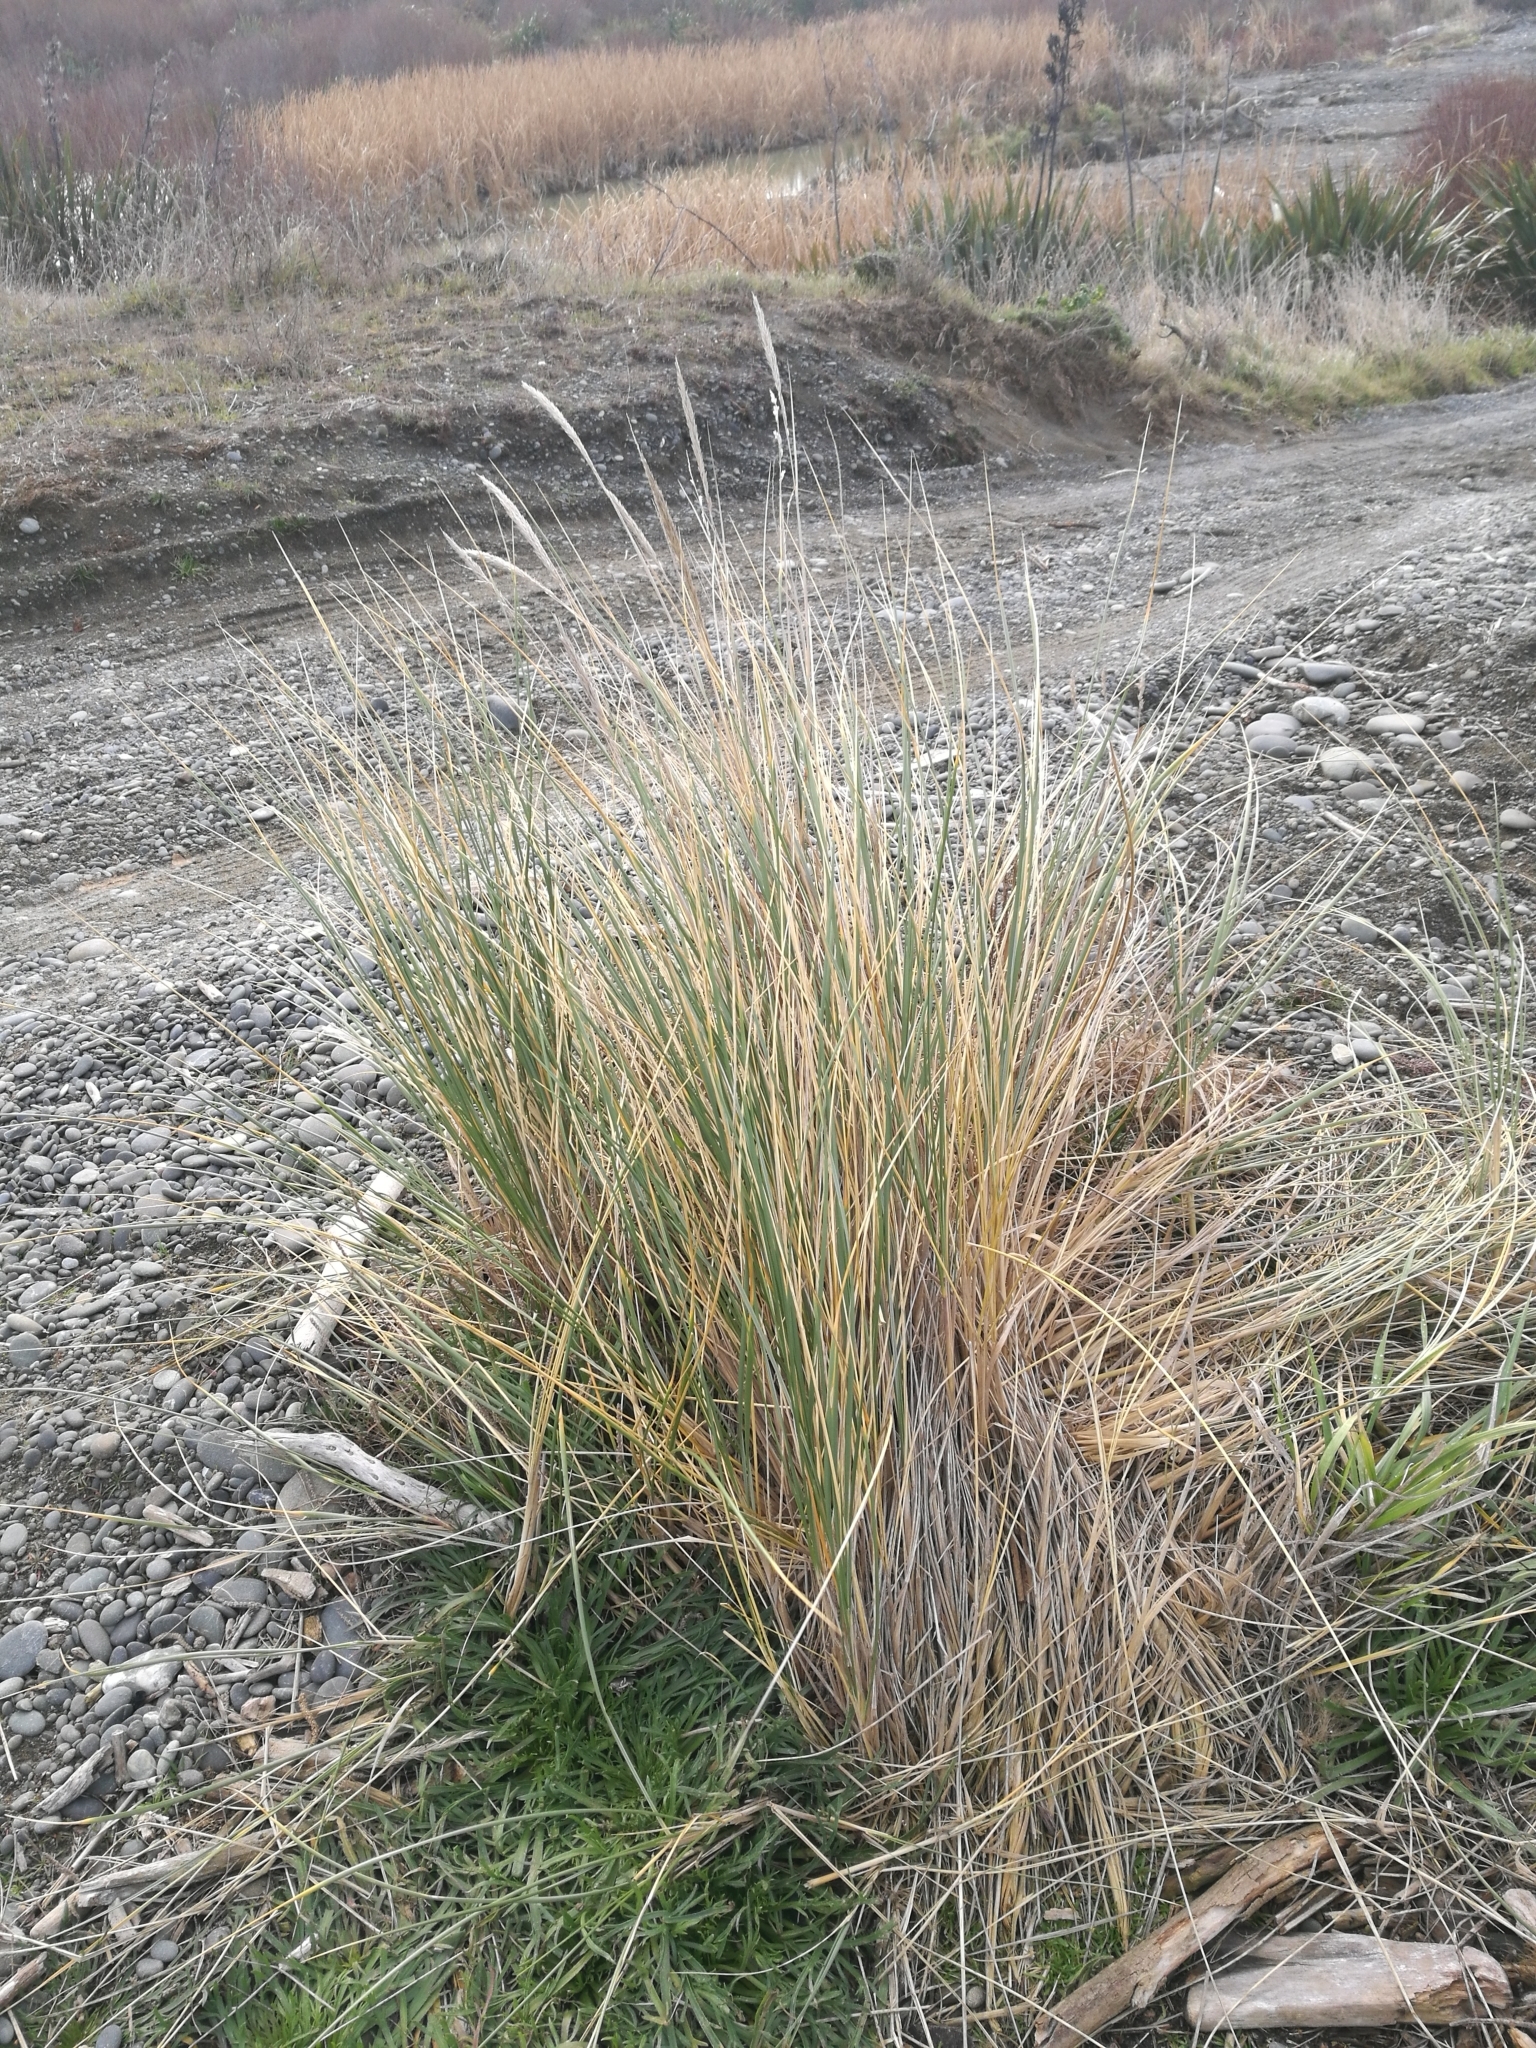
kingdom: Plantae
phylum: Tracheophyta
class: Liliopsida
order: Poales
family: Poaceae
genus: Calamagrostis
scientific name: Calamagrostis arenaria
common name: European beachgrass
